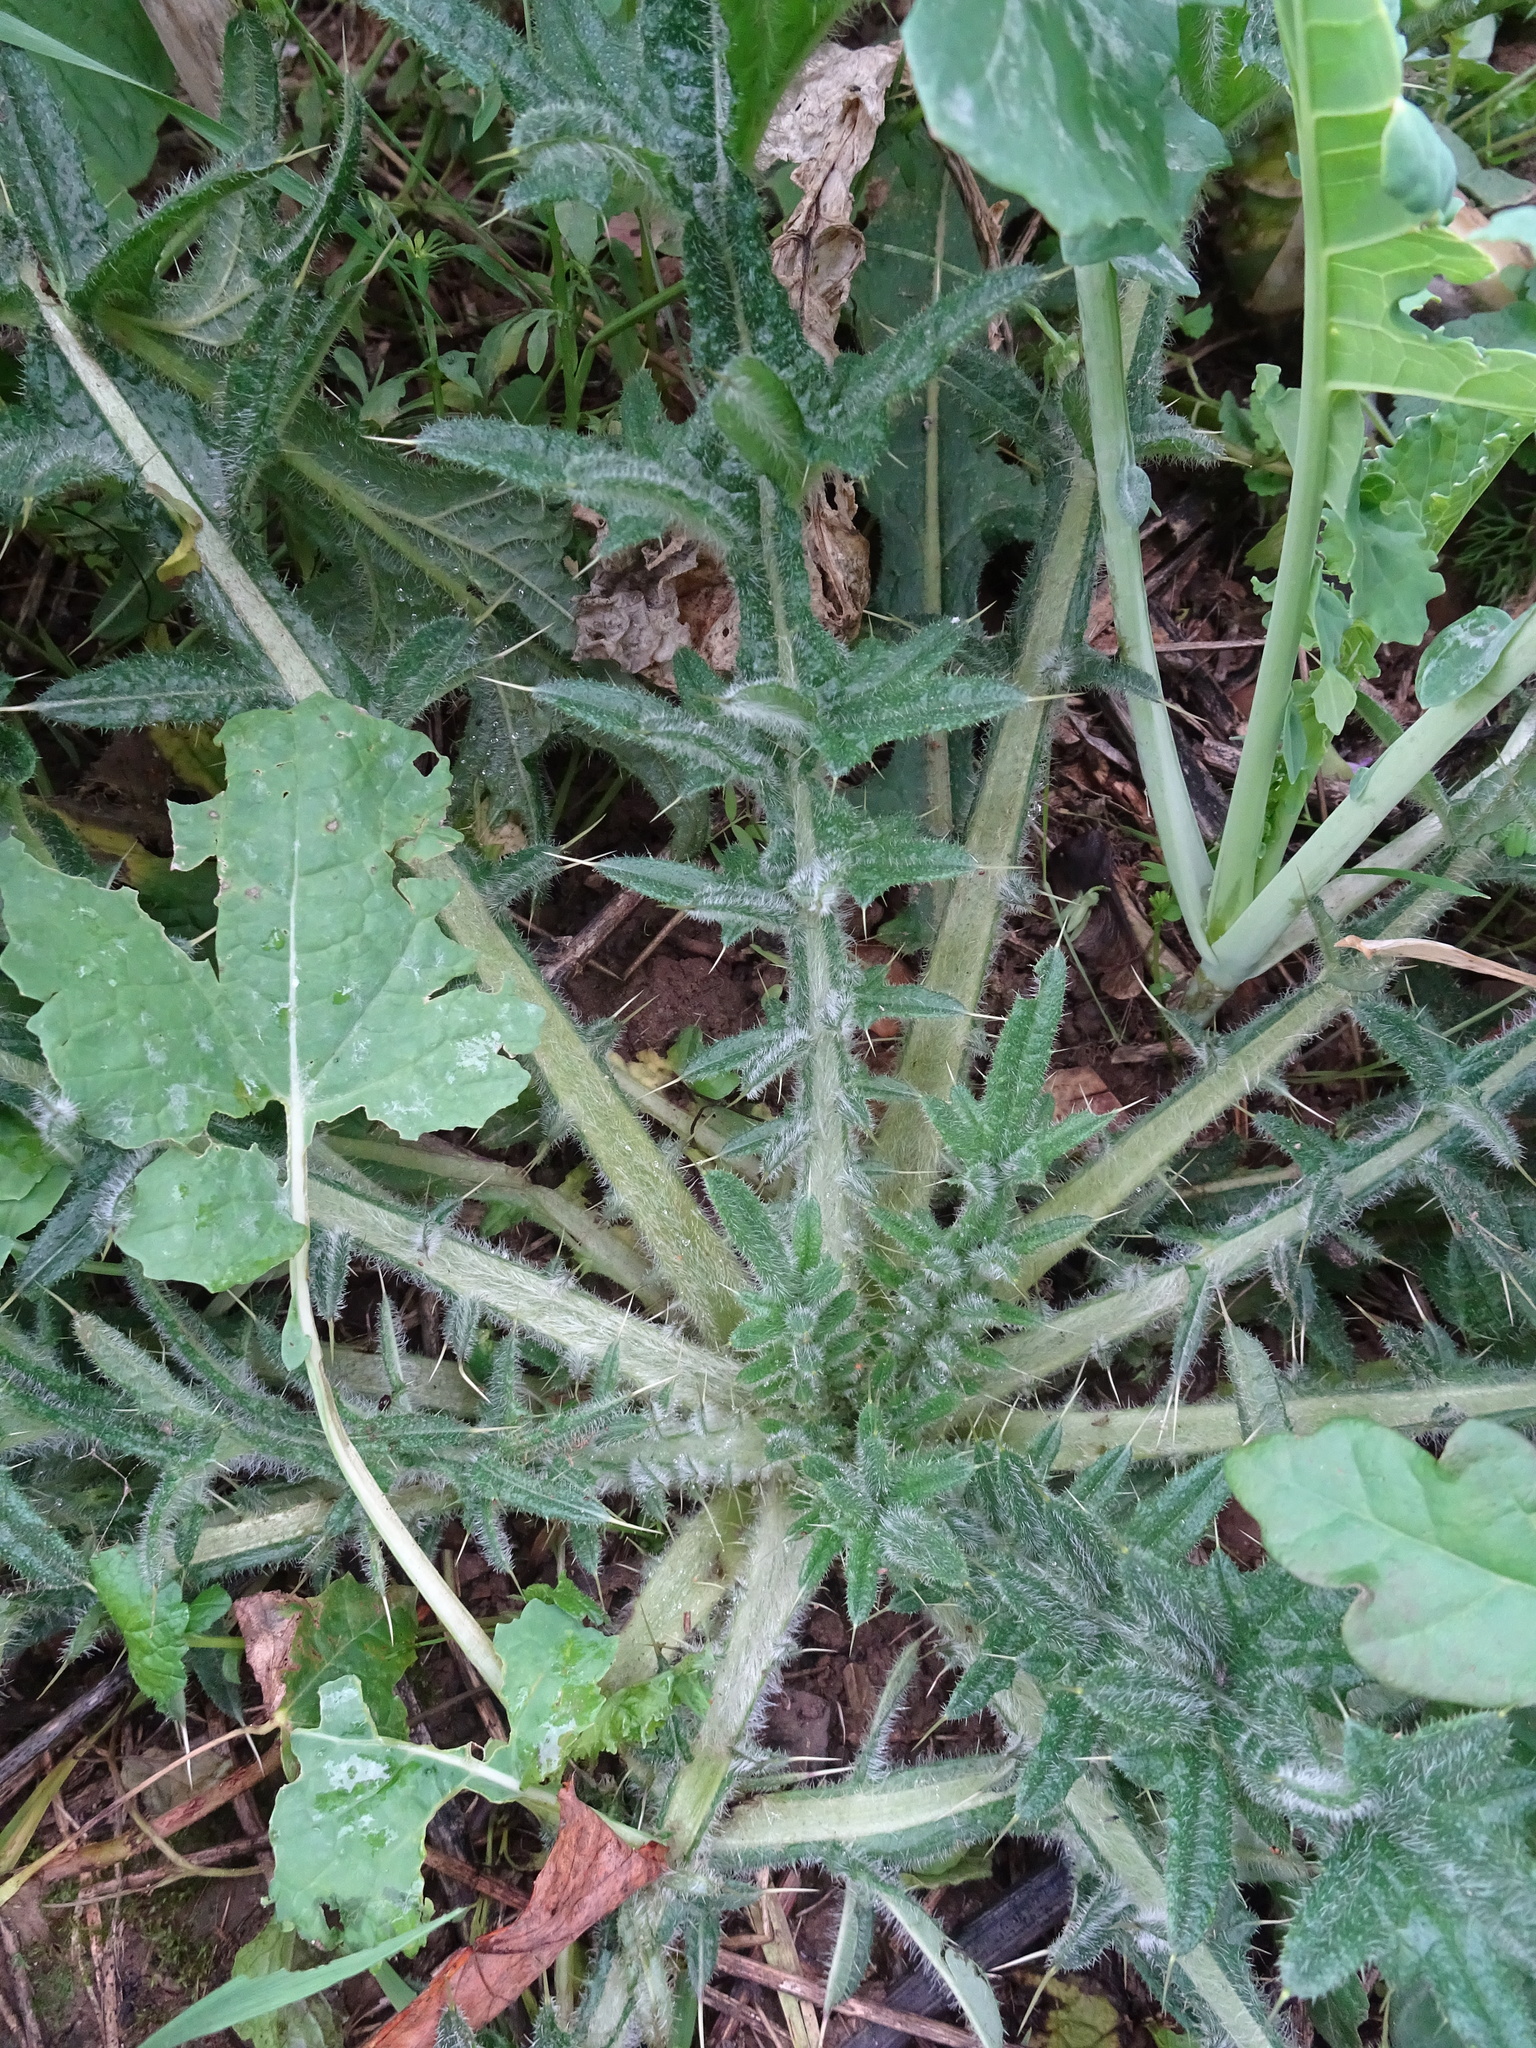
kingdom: Plantae
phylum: Tracheophyta
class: Magnoliopsida
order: Asterales
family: Asteraceae
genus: Cirsium
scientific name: Cirsium vulgare
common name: Bull thistle
